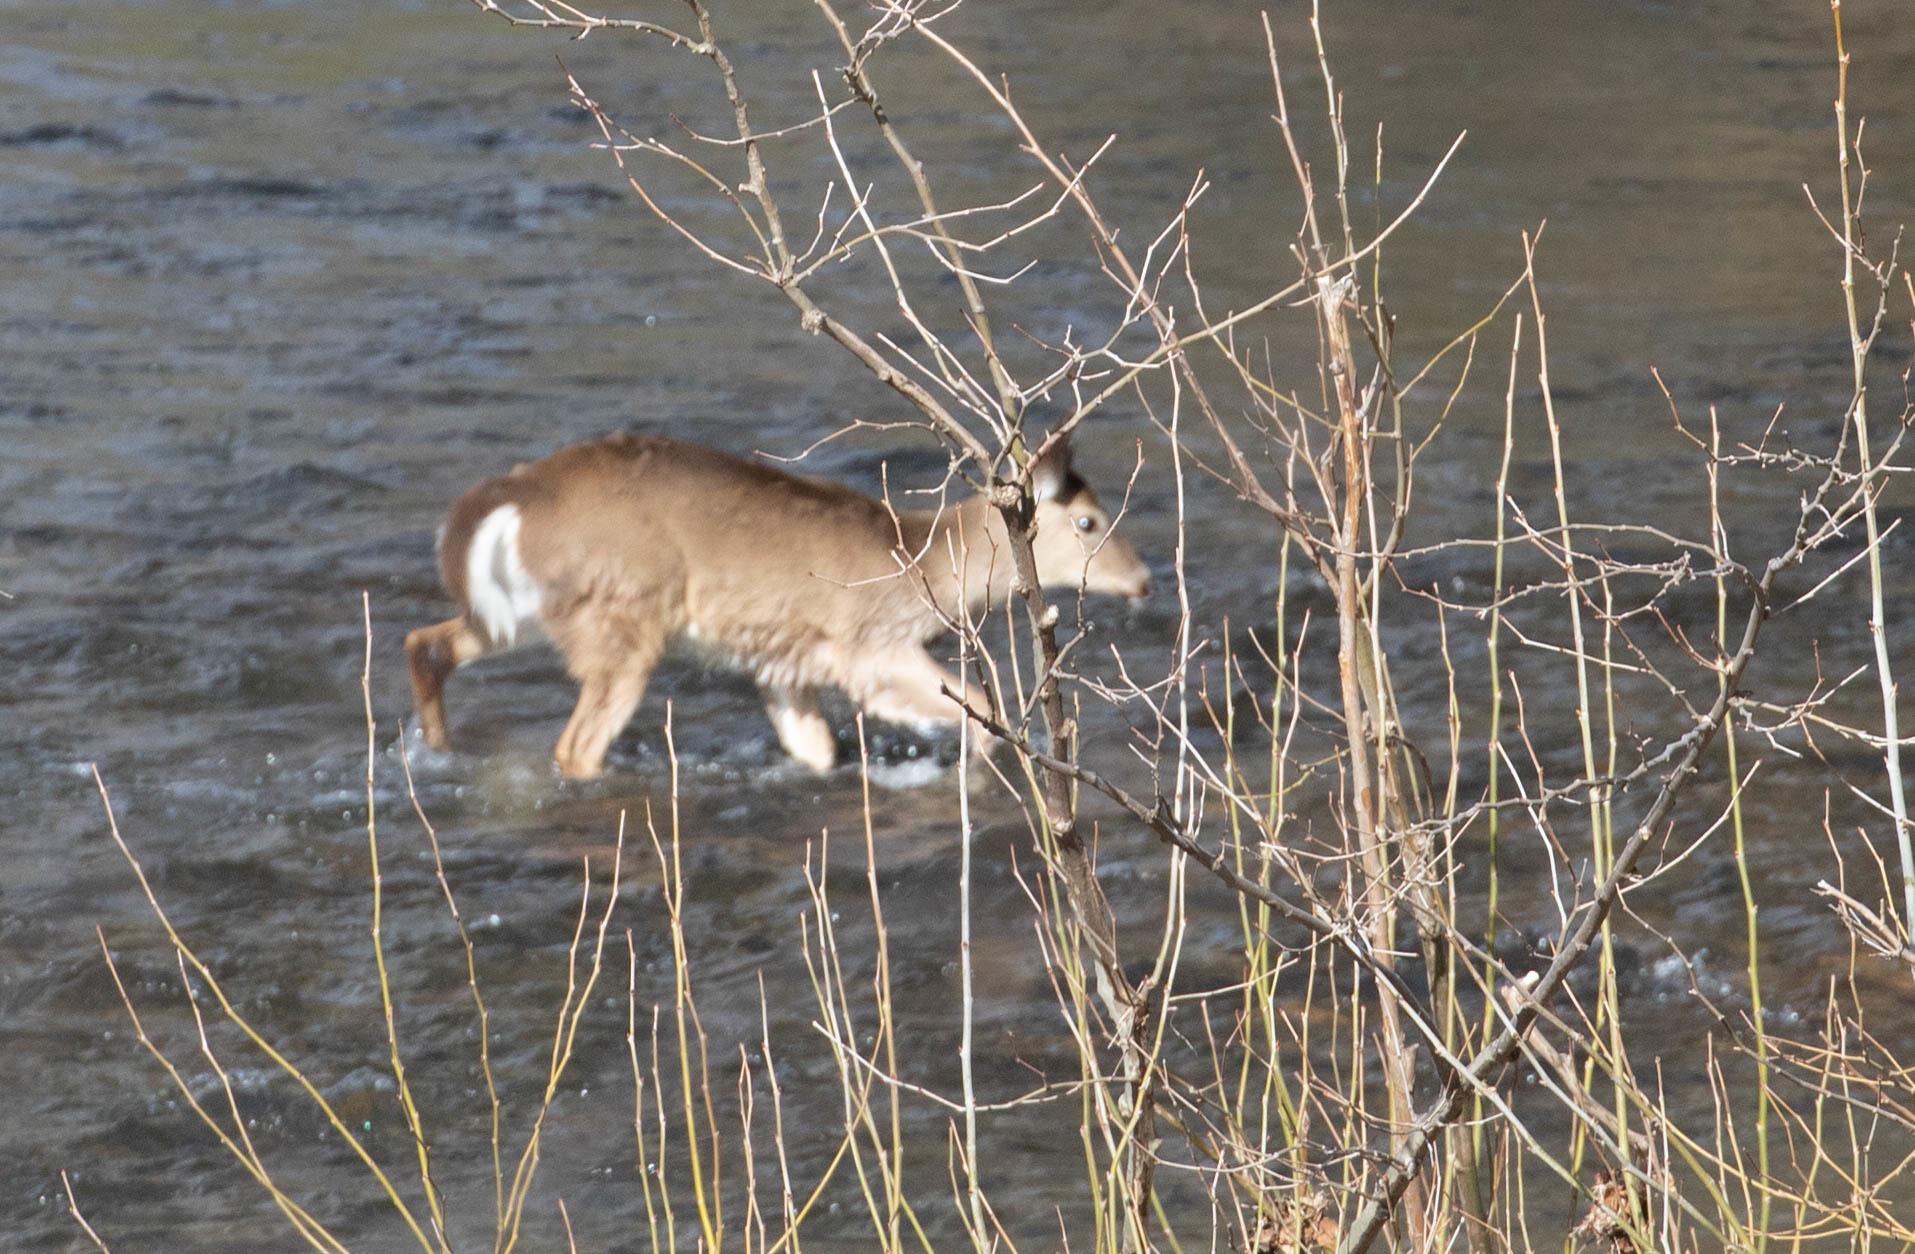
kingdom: Animalia
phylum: Chordata
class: Mammalia
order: Artiodactyla
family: Cervidae
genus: Odocoileus
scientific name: Odocoileus virginianus
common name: White-tailed deer
